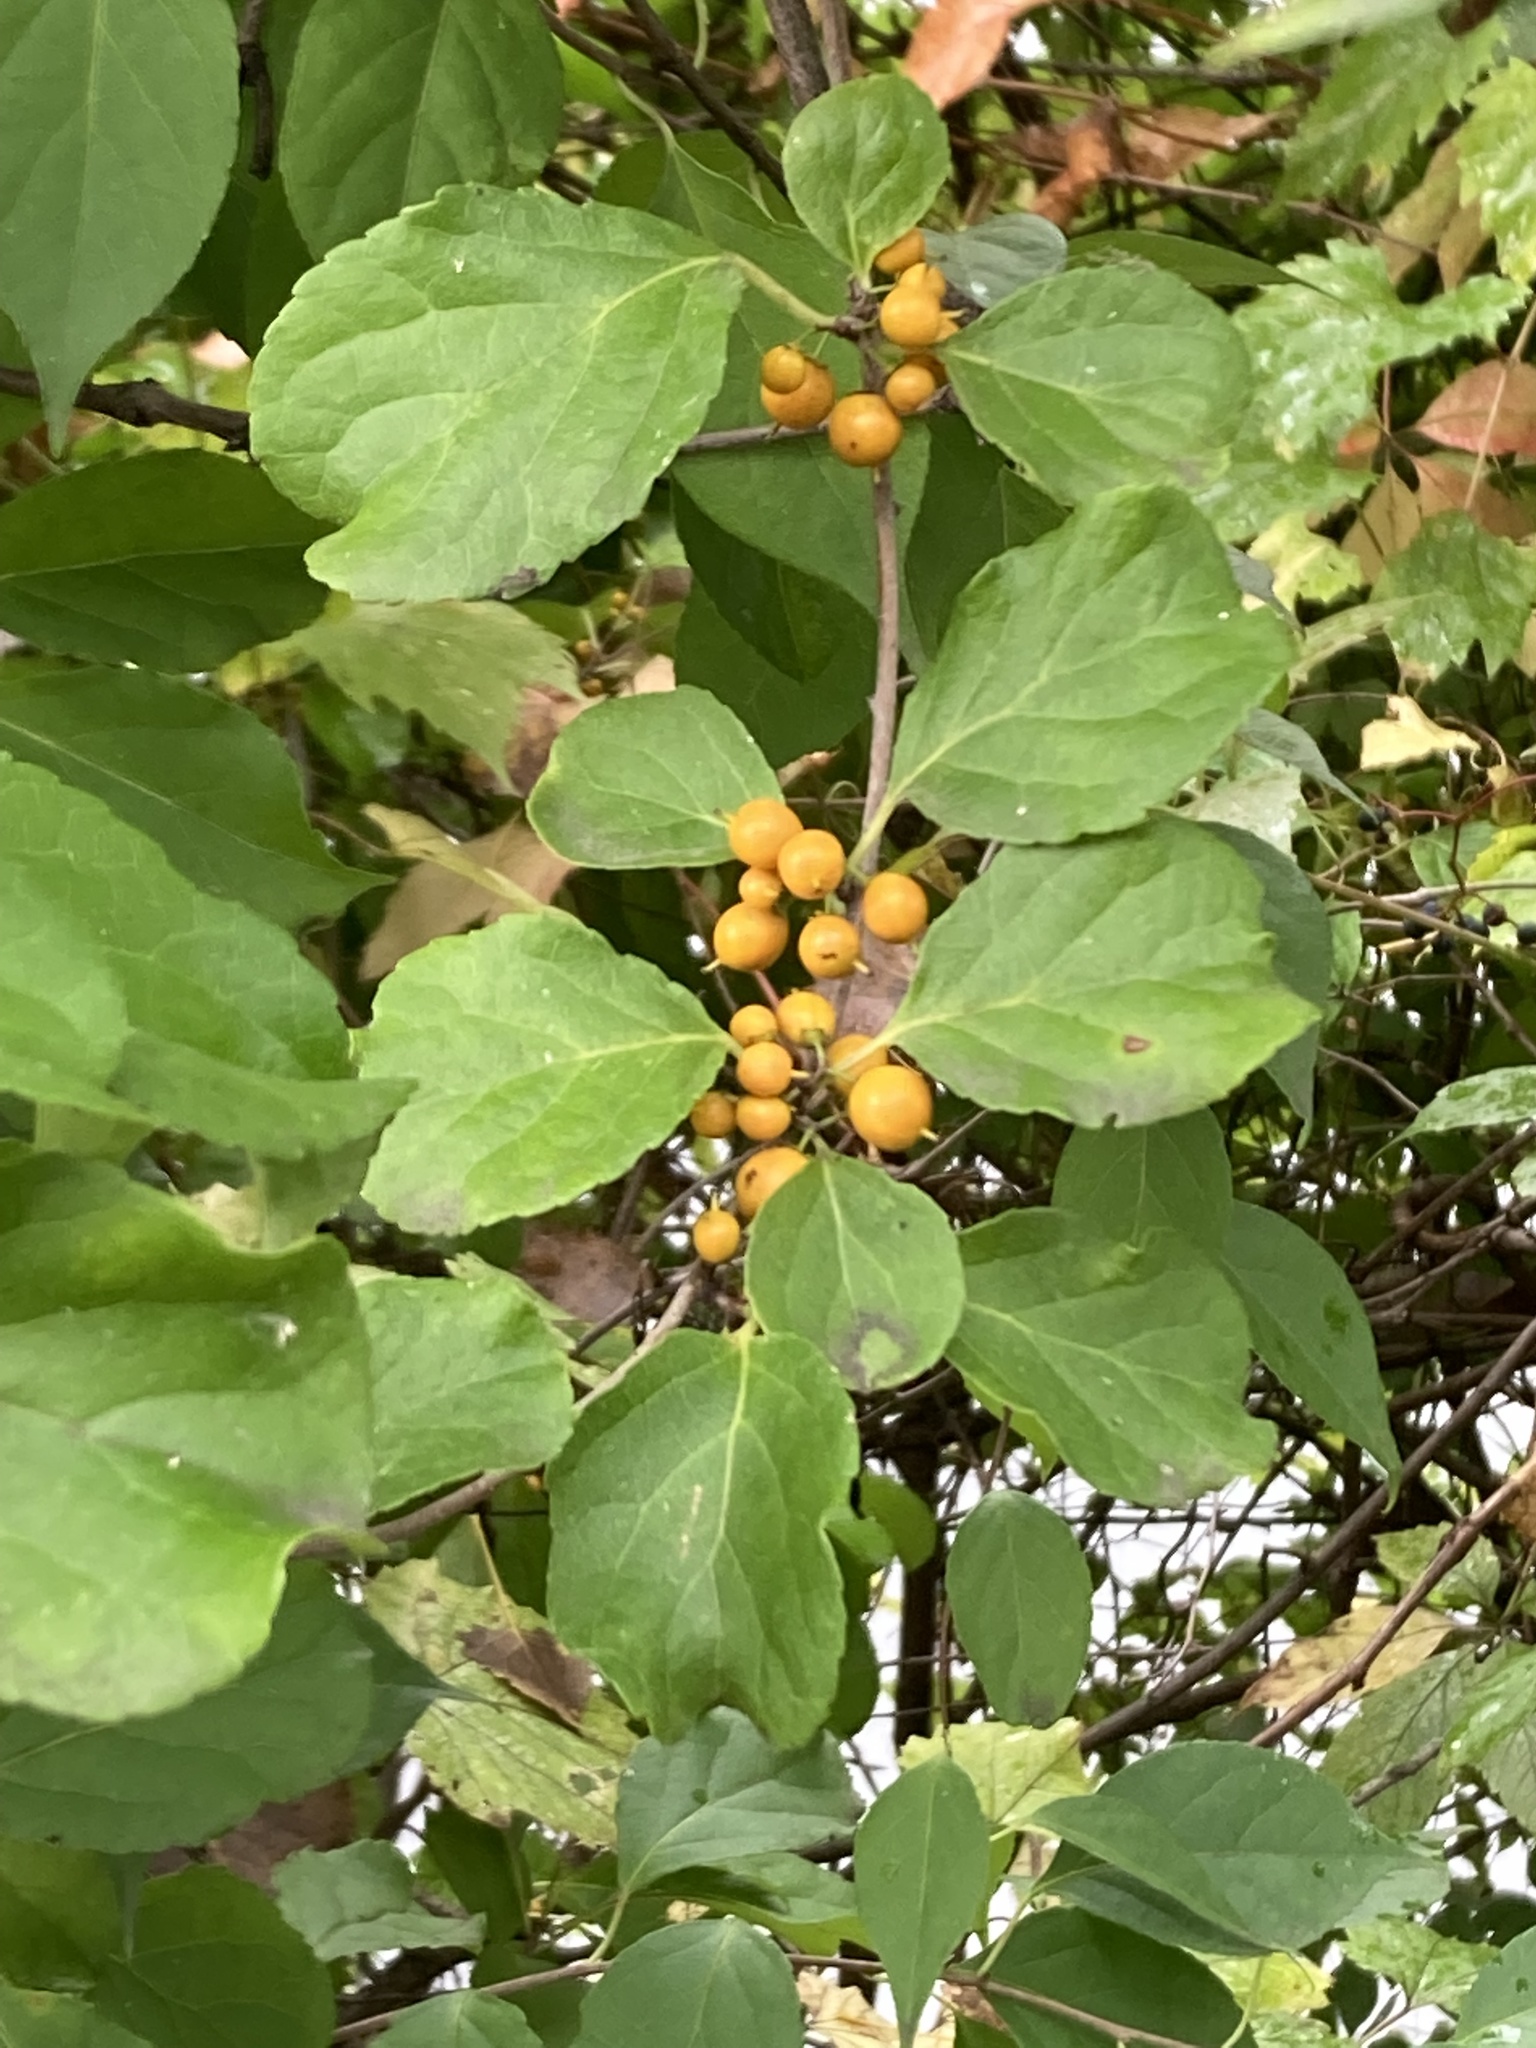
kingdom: Plantae
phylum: Tracheophyta
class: Magnoliopsida
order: Celastrales
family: Celastraceae
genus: Celastrus
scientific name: Celastrus orbiculatus
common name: Oriental bittersweet
